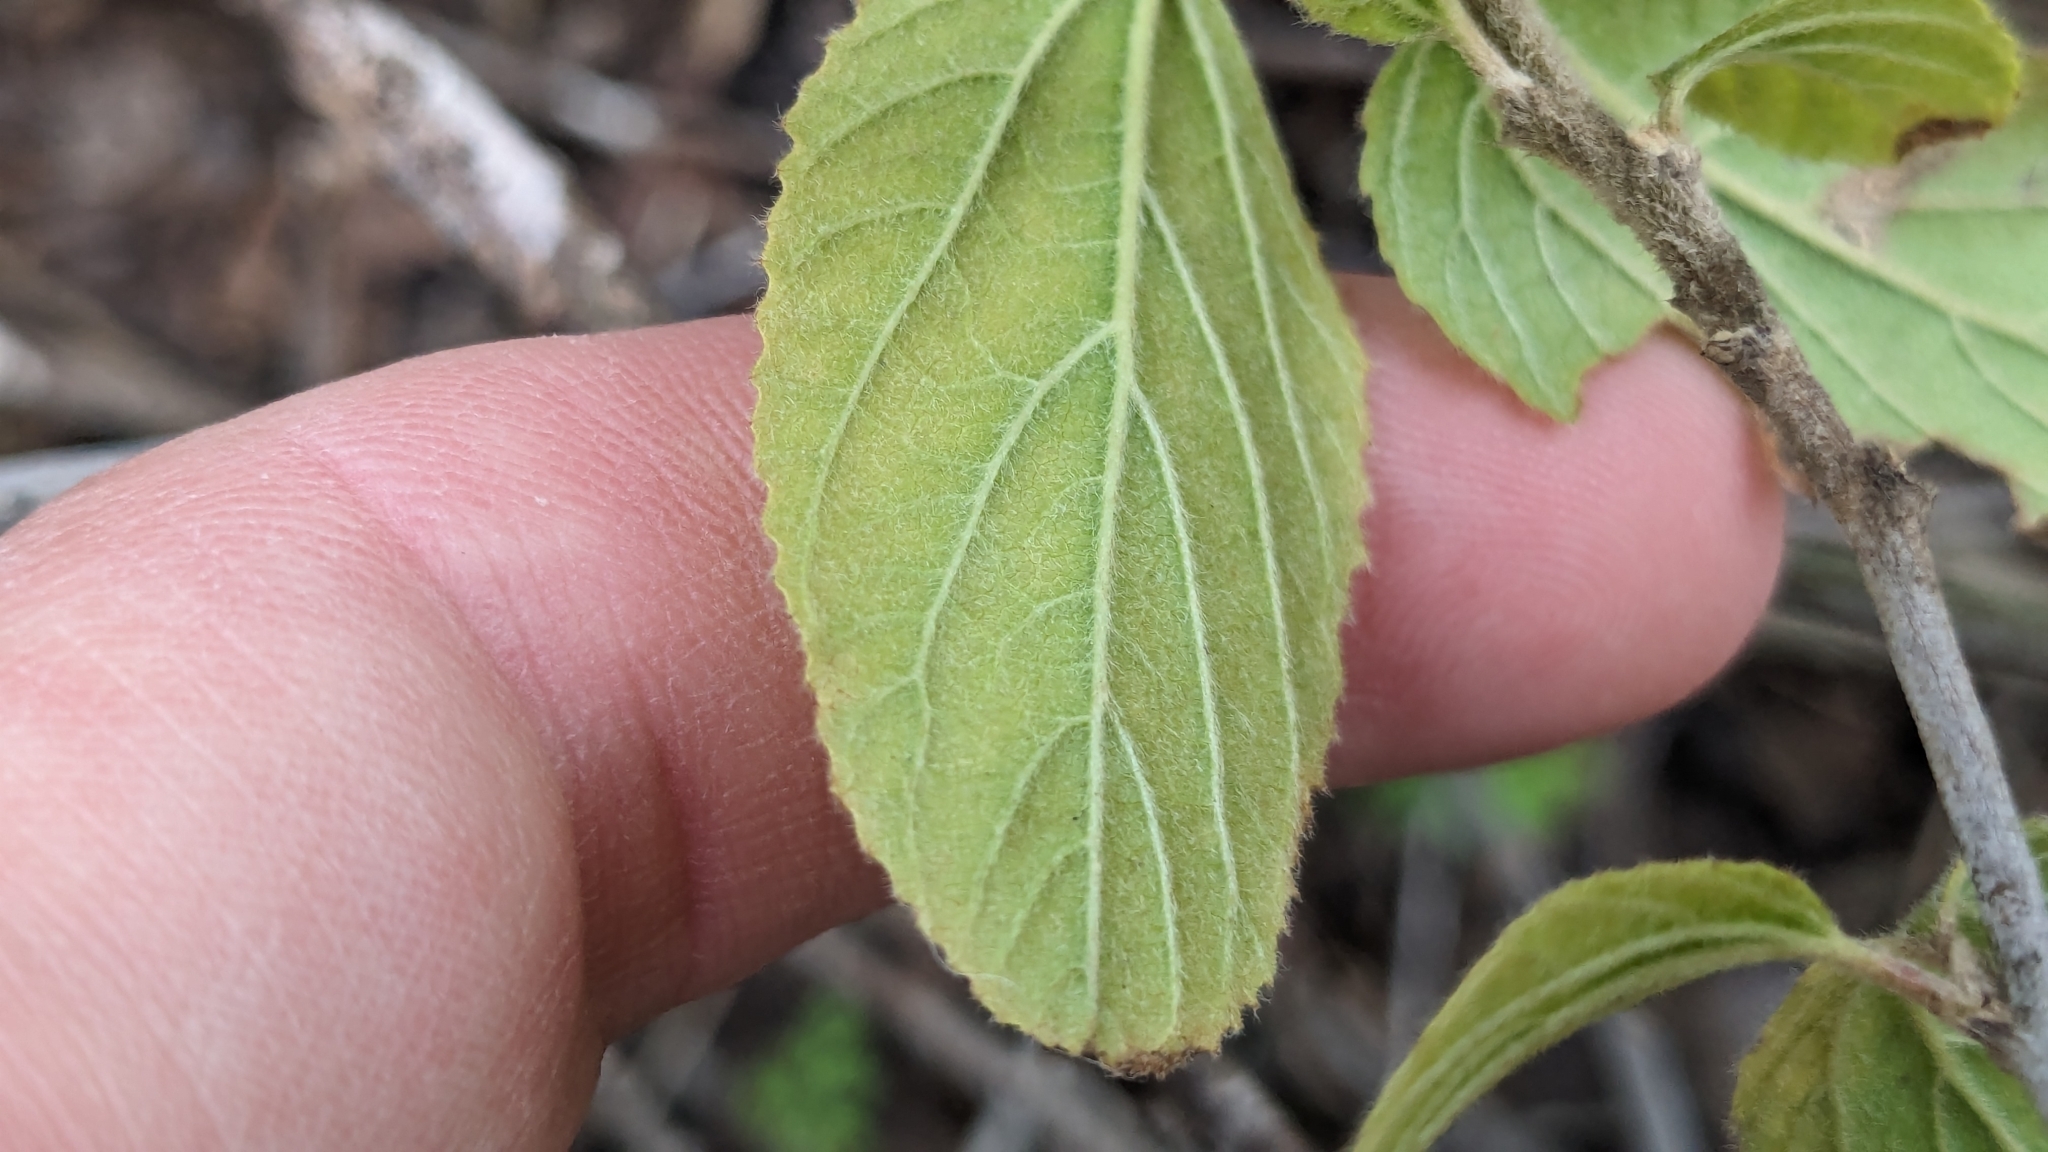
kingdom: Plantae
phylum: Tracheophyta
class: Magnoliopsida
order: Rosales
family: Rhamnaceae
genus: Colubrina
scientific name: Colubrina texensis
